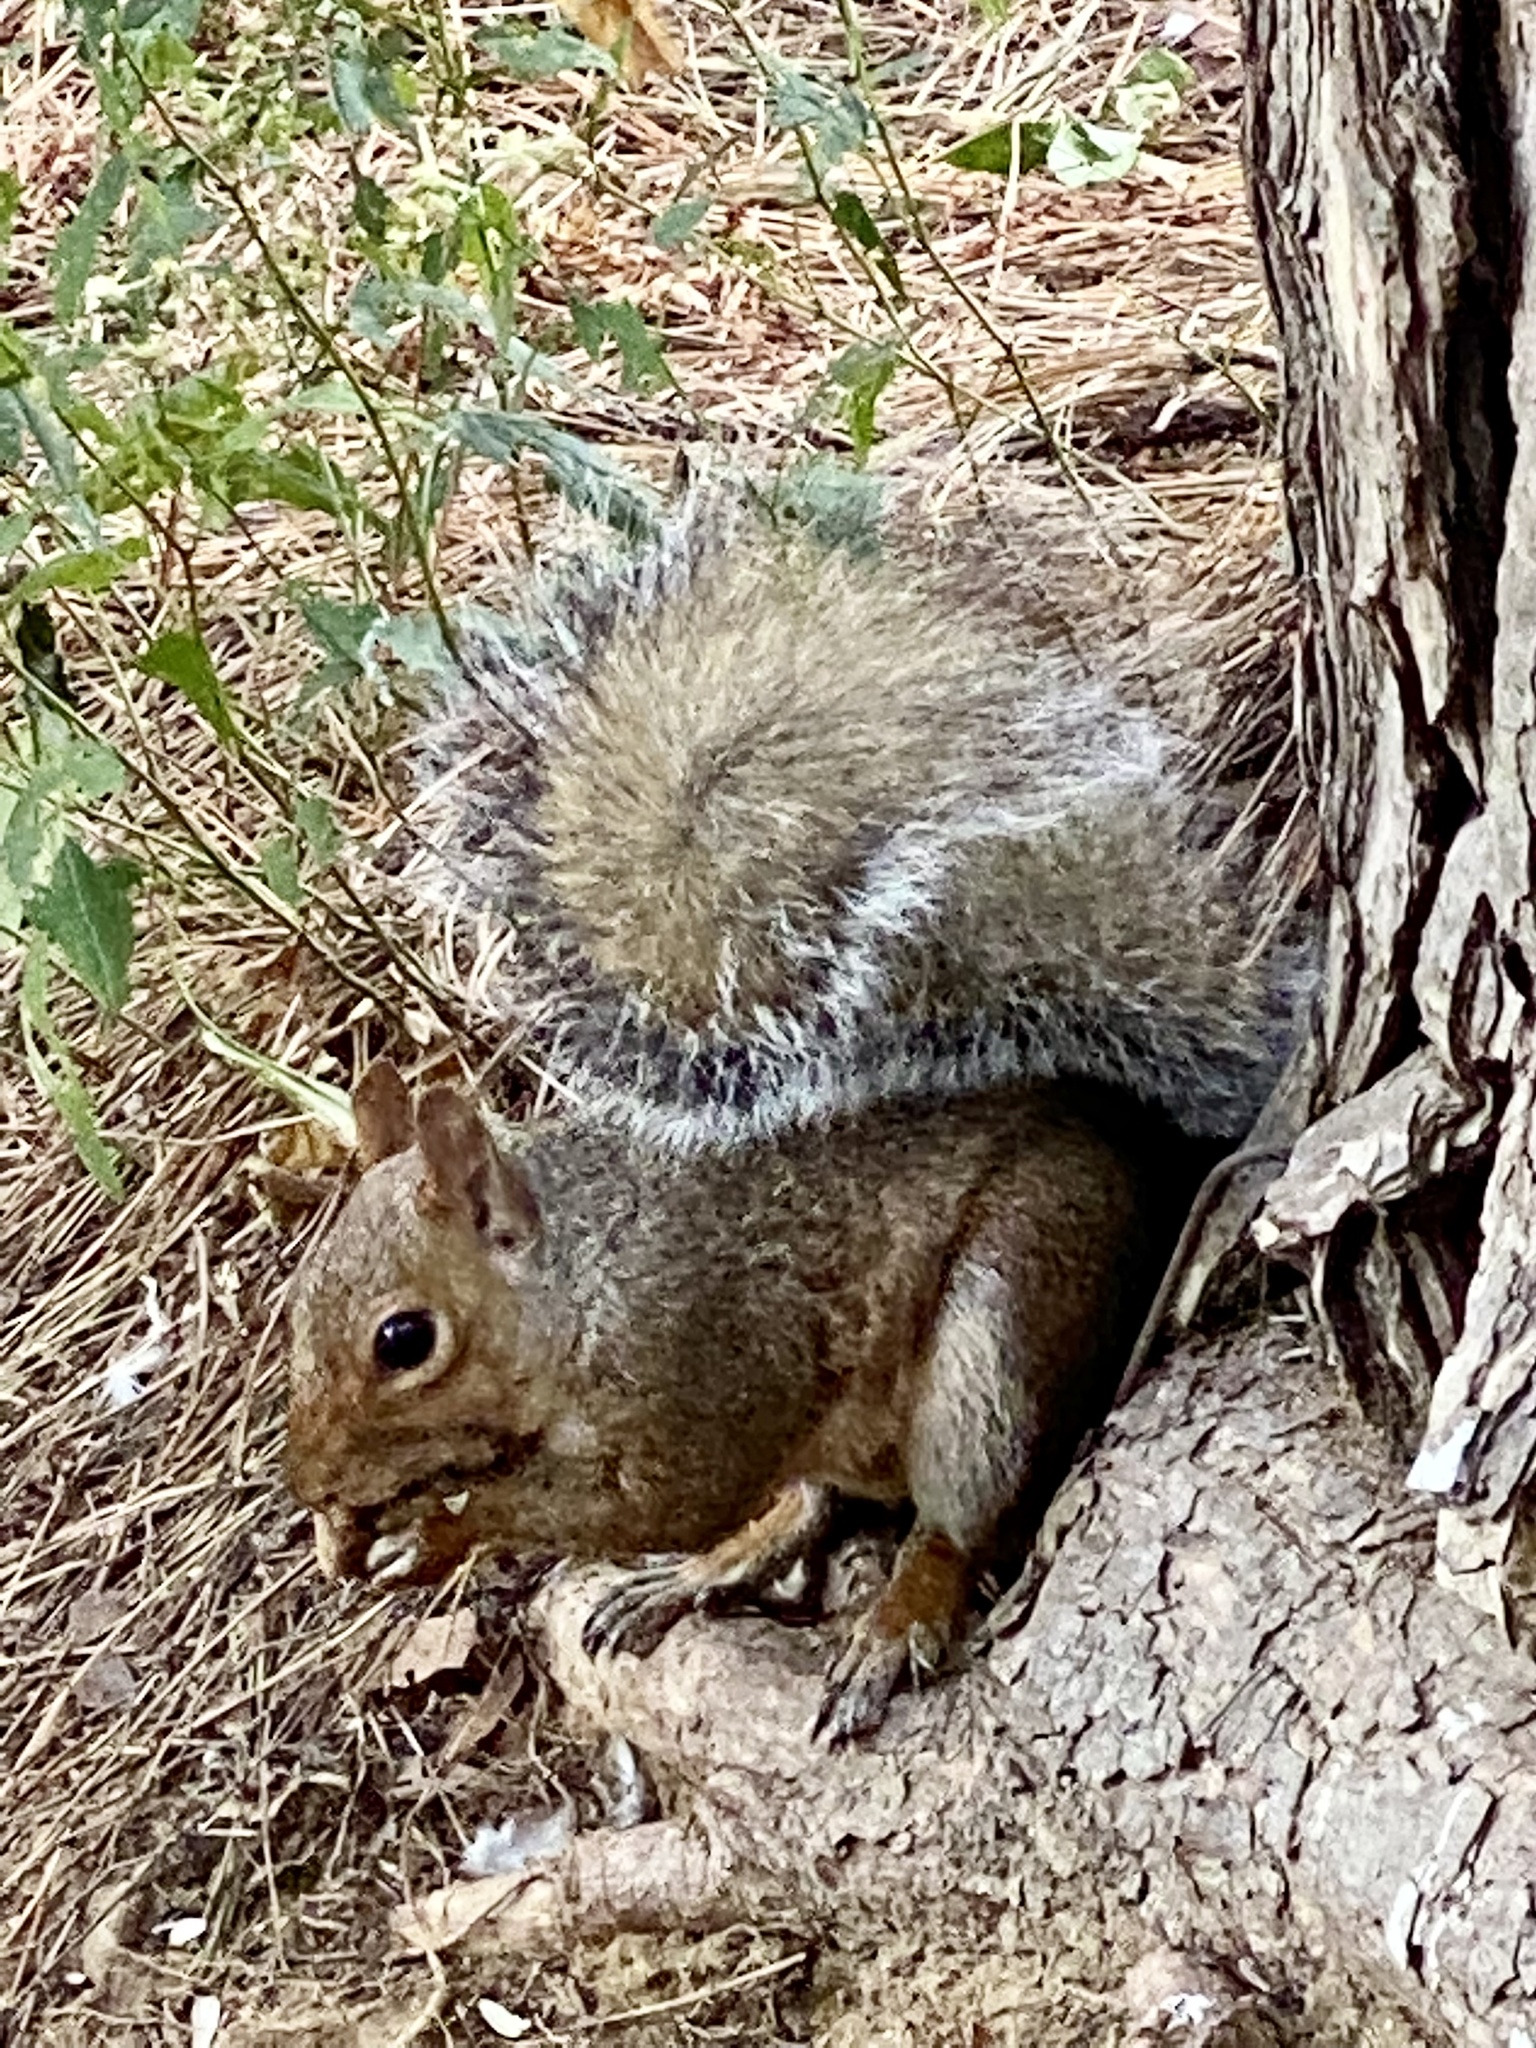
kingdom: Animalia
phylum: Chordata
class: Mammalia
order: Rodentia
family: Sciuridae
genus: Sciurus
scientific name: Sciurus carolinensis
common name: Eastern gray squirrel
